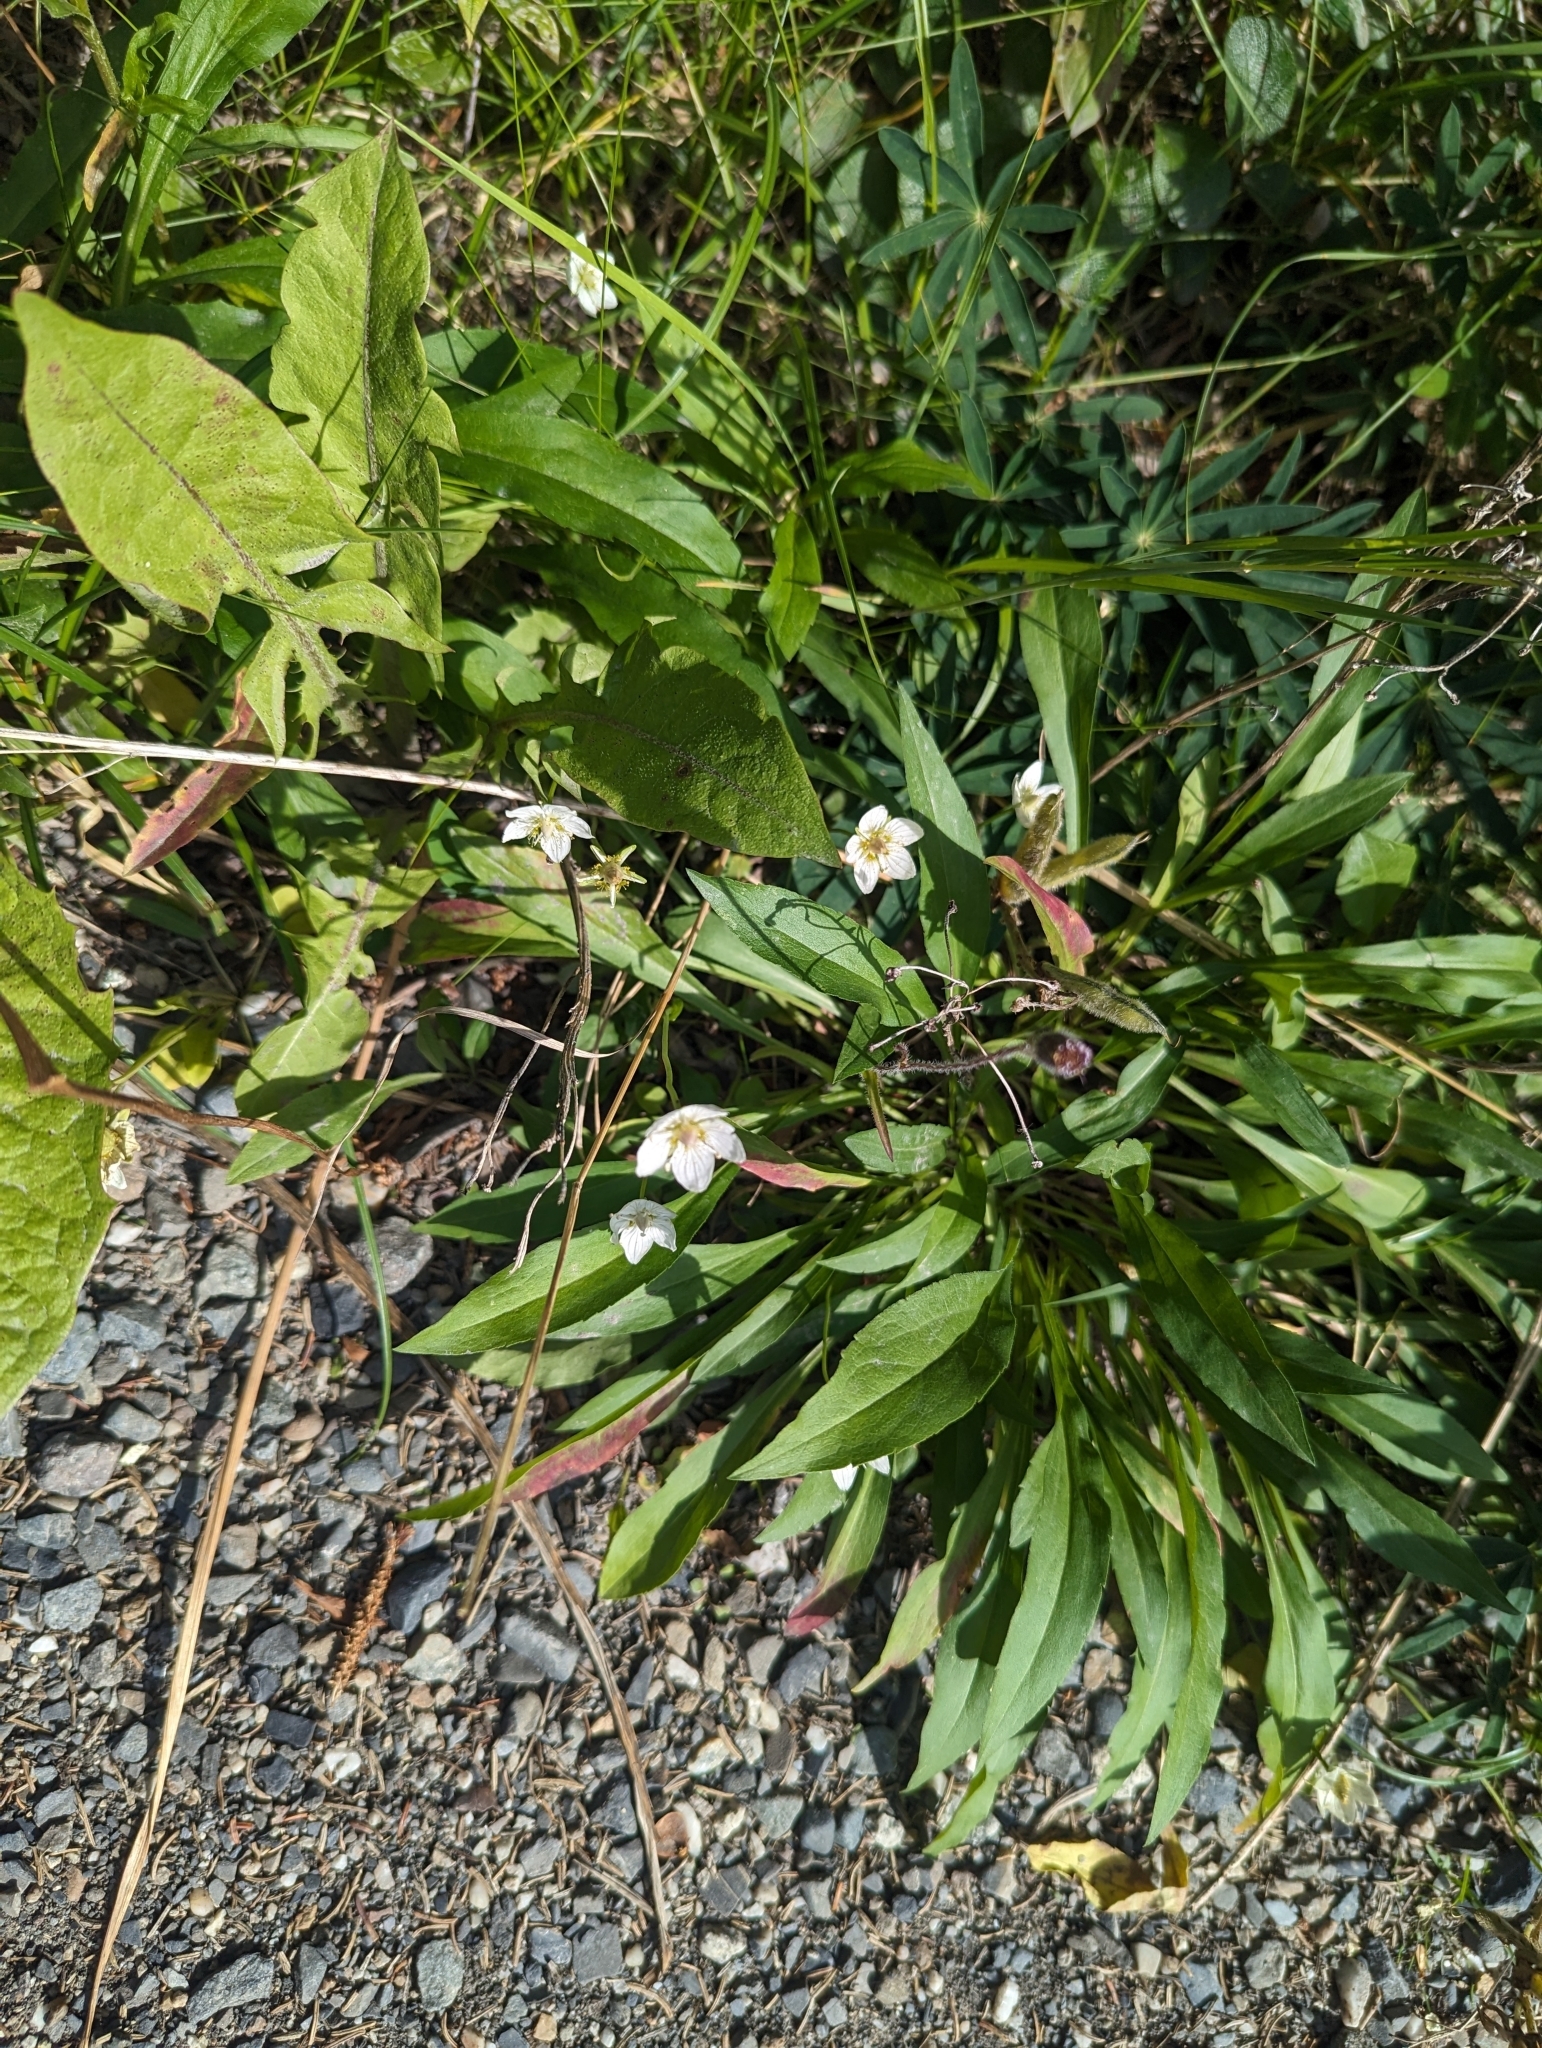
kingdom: Plantae
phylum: Tracheophyta
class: Magnoliopsida
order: Celastrales
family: Parnassiaceae
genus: Parnassia
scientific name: Parnassia palustris
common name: Grass-of-parnassus
